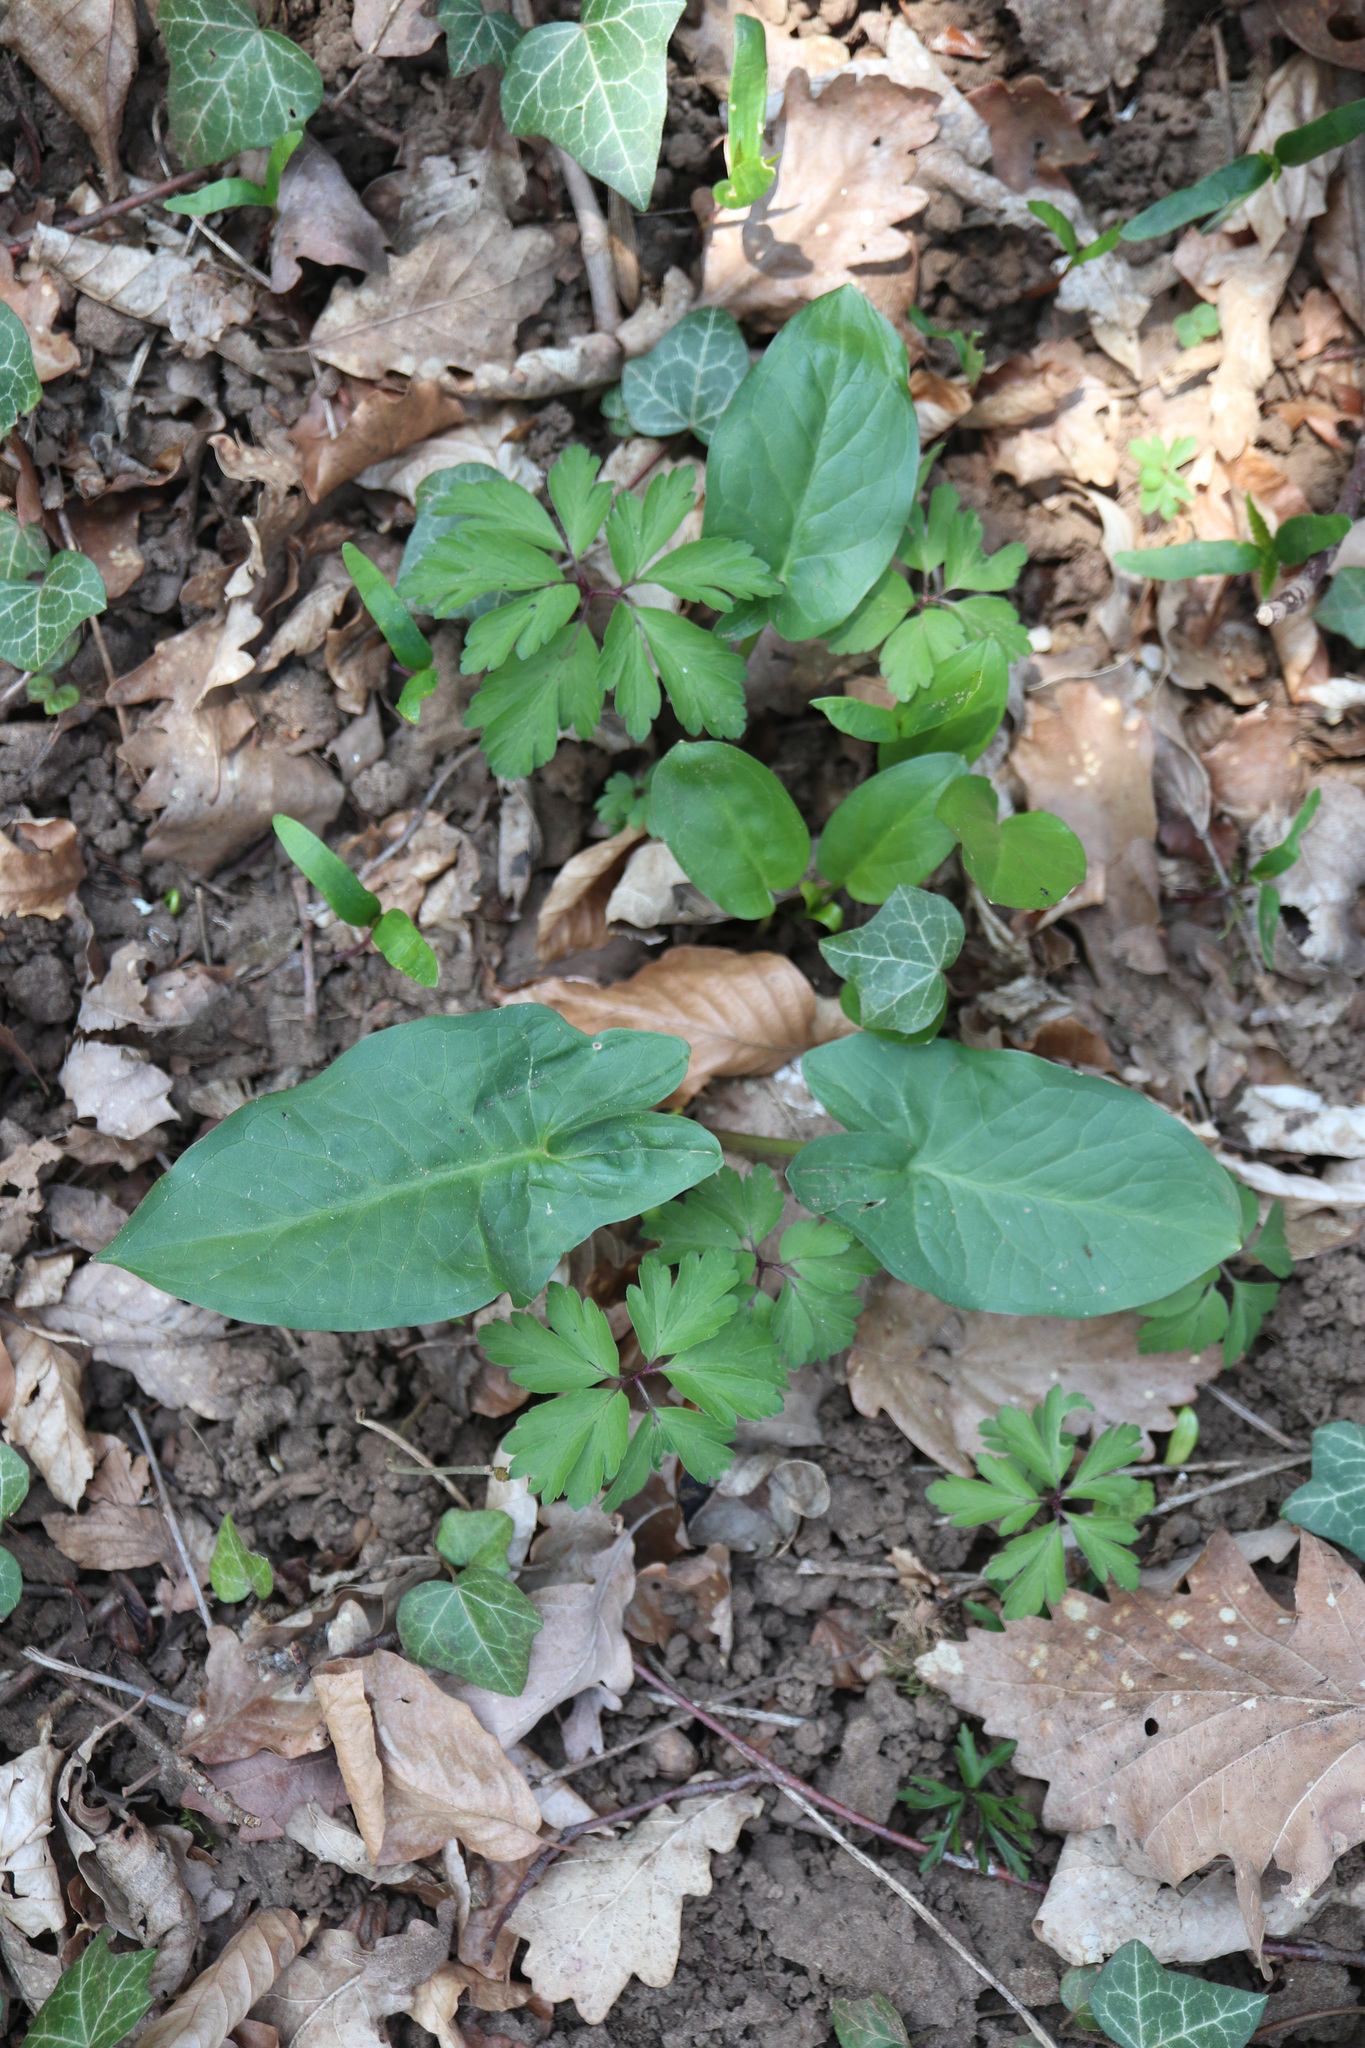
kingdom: Plantae
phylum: Tracheophyta
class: Liliopsida
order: Alismatales
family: Araceae
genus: Arum
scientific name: Arum maculatum
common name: Lords-and-ladies
